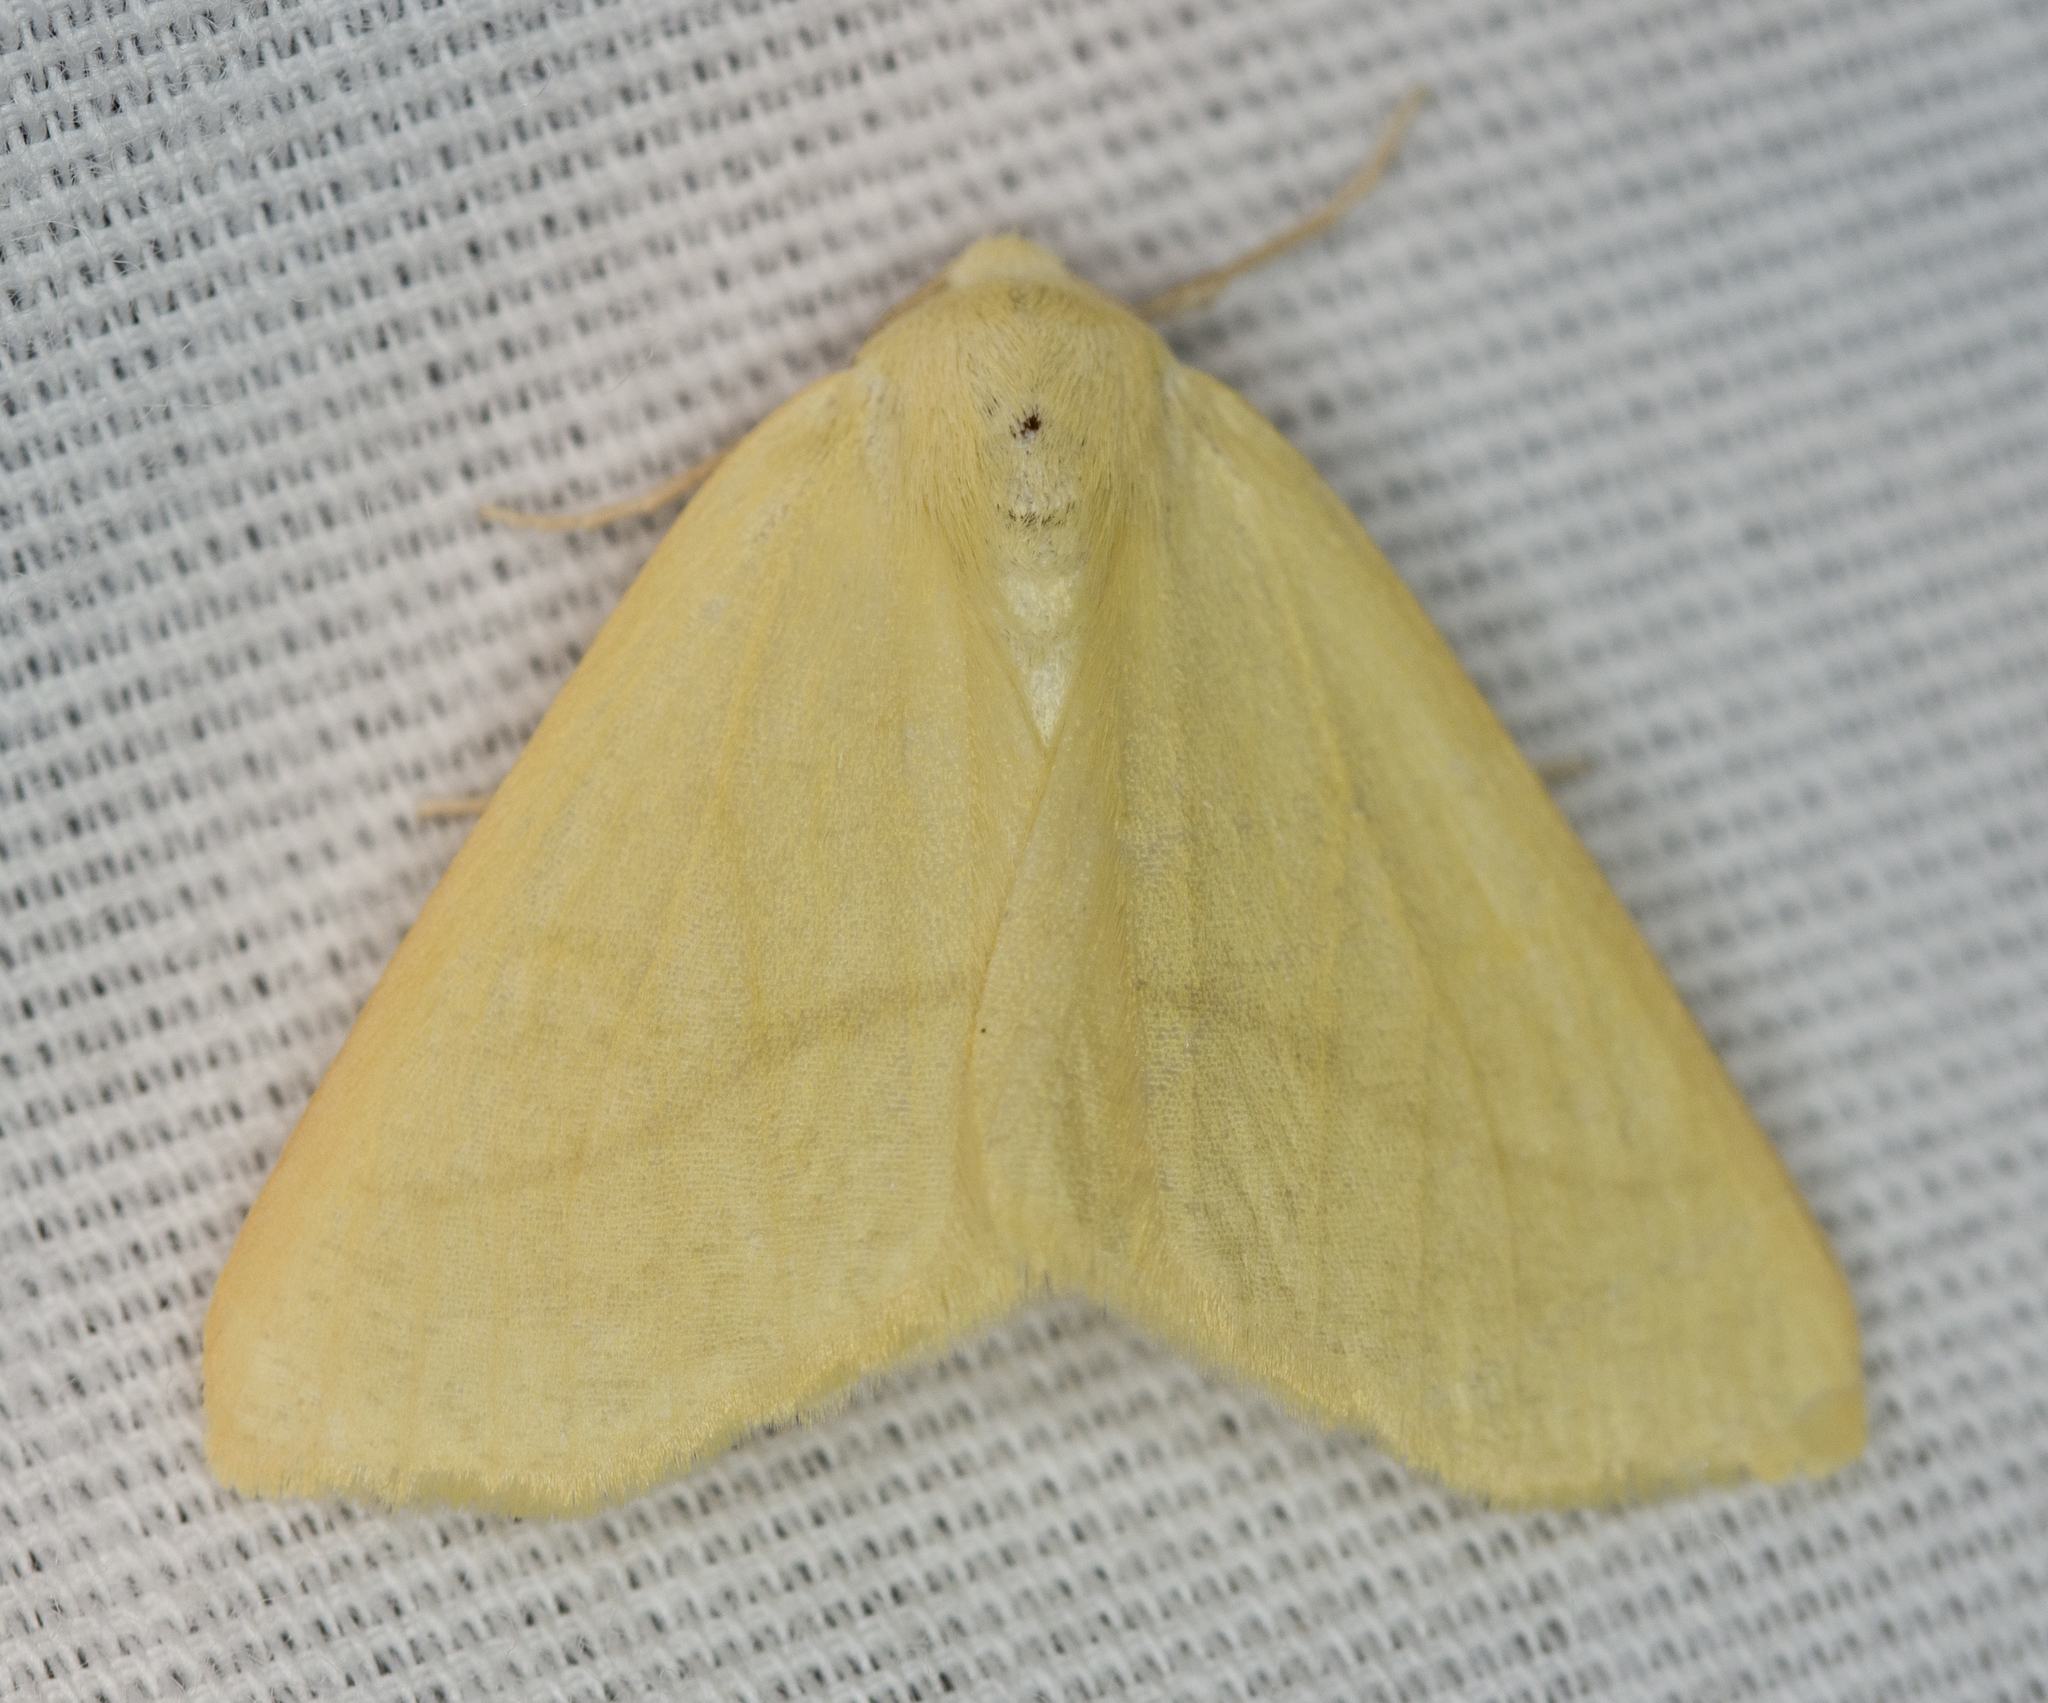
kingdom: Animalia
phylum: Arthropoda
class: Insecta
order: Lepidoptera
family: Geometridae
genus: Neoterpes
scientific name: Neoterpes ephelidaria
